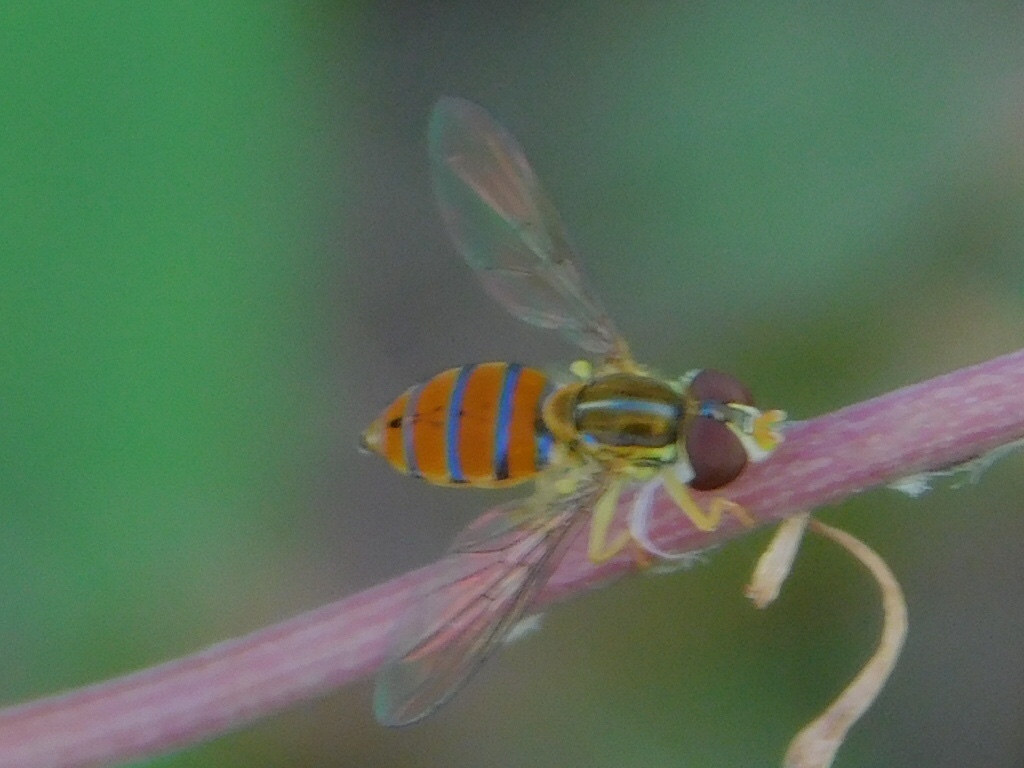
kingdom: Animalia
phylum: Arthropoda
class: Insecta
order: Diptera
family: Syrphidae
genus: Toxomerus
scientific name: Toxomerus corbis
